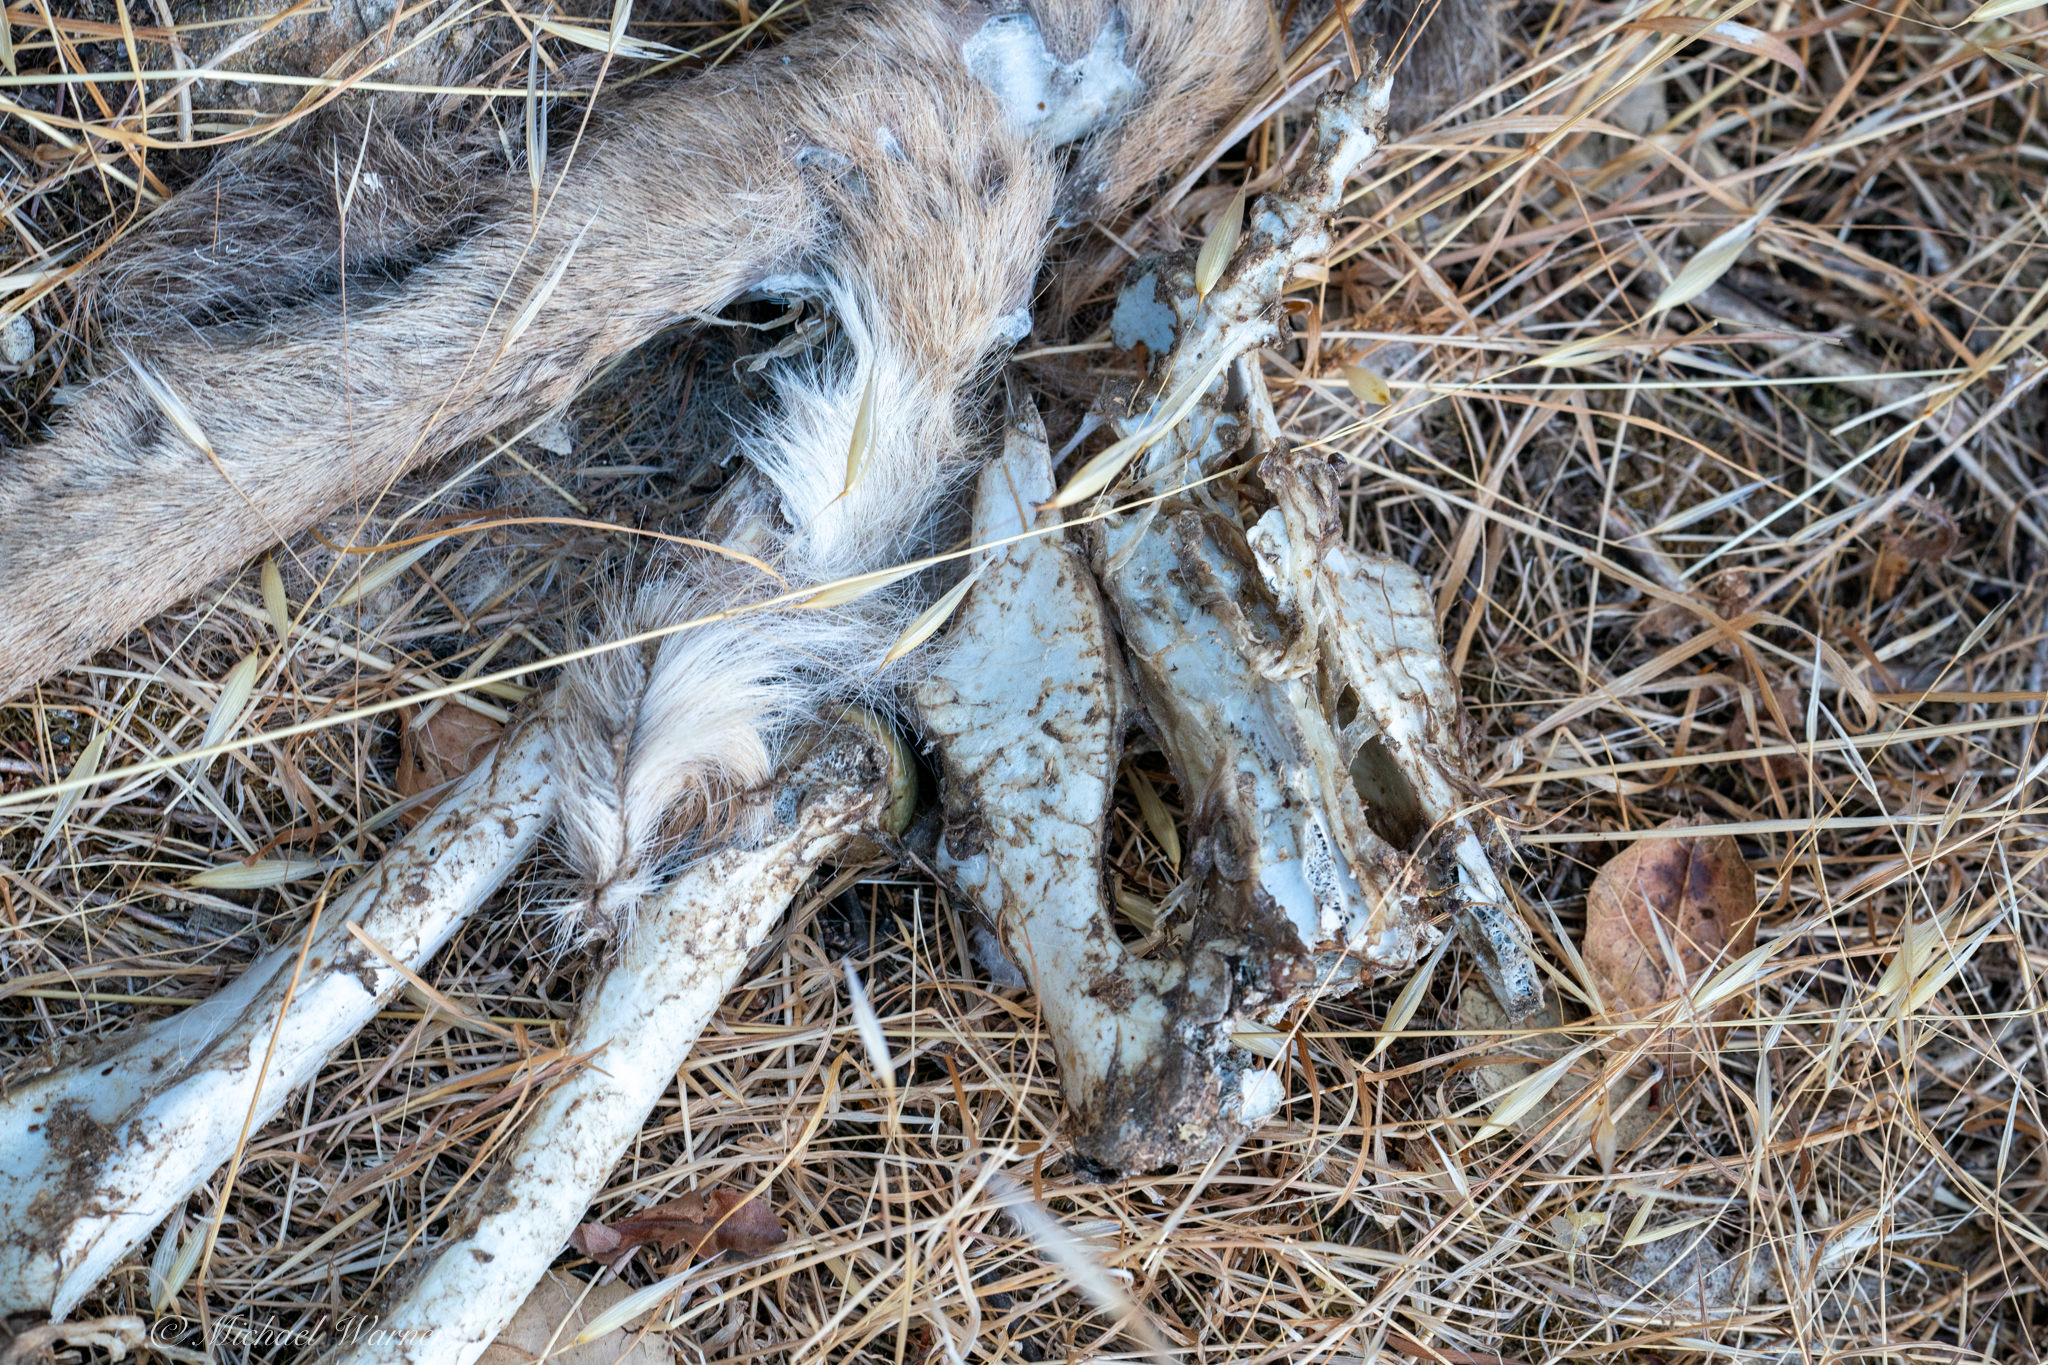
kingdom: Animalia
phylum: Chordata
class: Mammalia
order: Artiodactyla
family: Cervidae
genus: Odocoileus
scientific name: Odocoileus hemionus
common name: Mule deer
